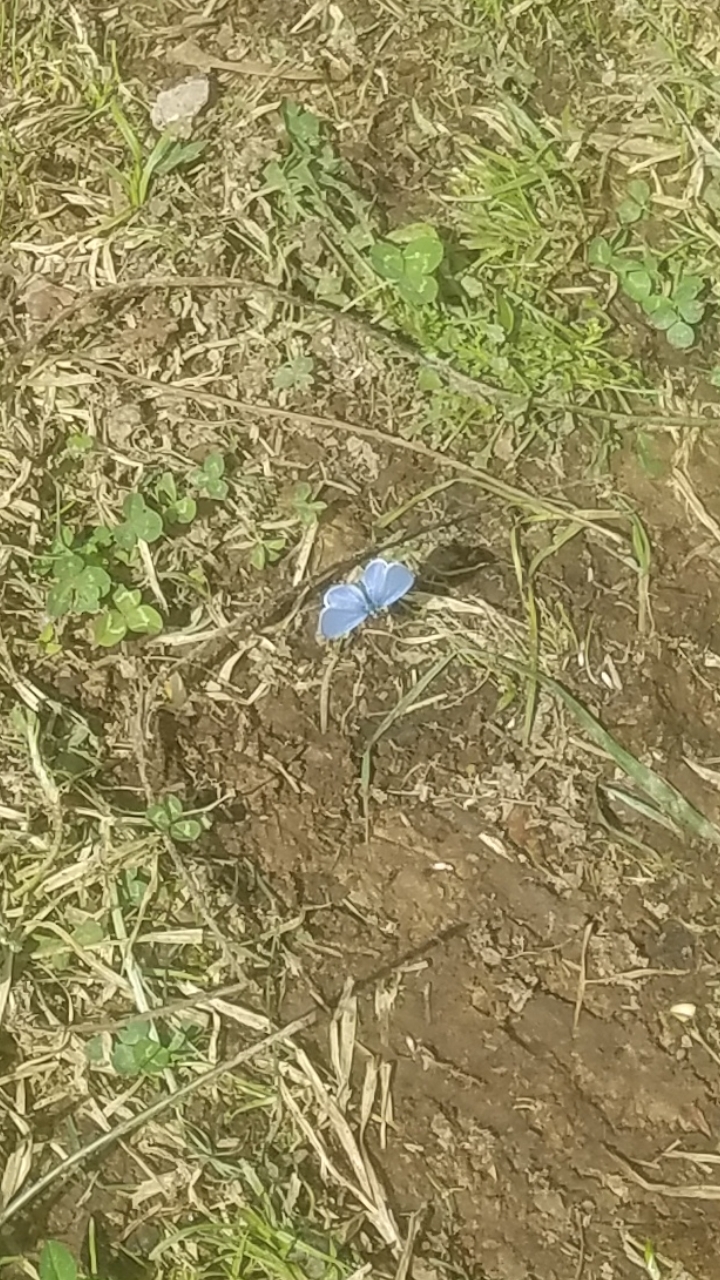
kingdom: Animalia
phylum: Arthropoda
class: Insecta
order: Lepidoptera
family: Lycaenidae
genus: Celastrina
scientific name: Celastrina ladon
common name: Spring azure
